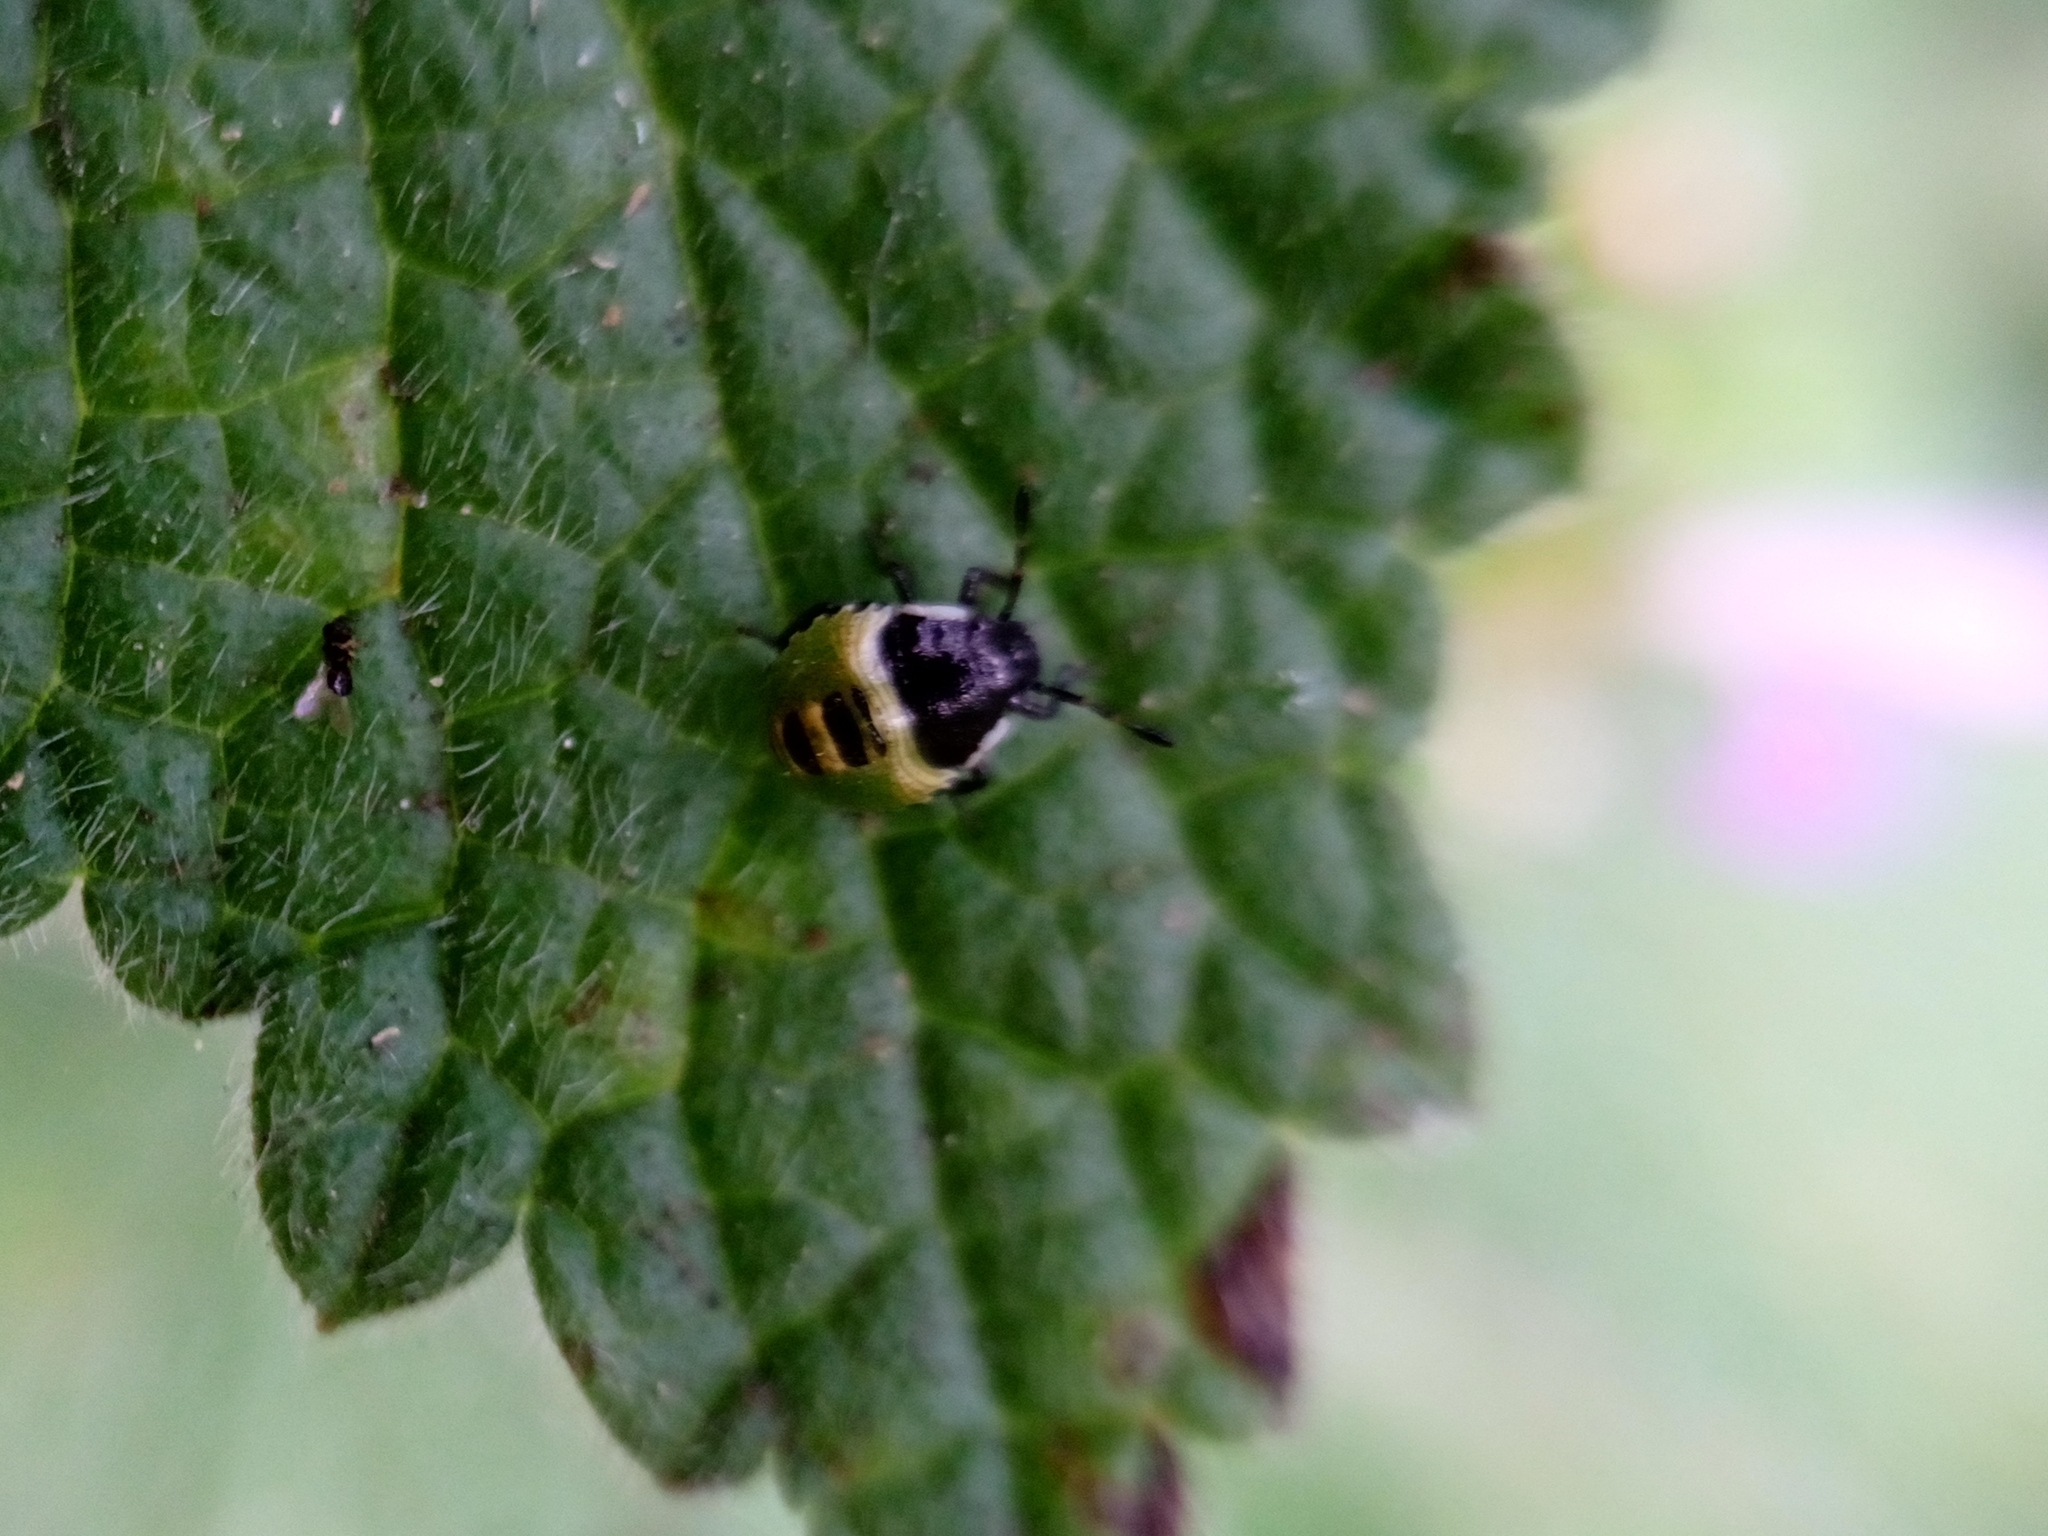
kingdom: Animalia
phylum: Arthropoda
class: Insecta
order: Hemiptera
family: Pentatomidae
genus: Palomena
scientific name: Palomena prasina
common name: Green shieldbug
